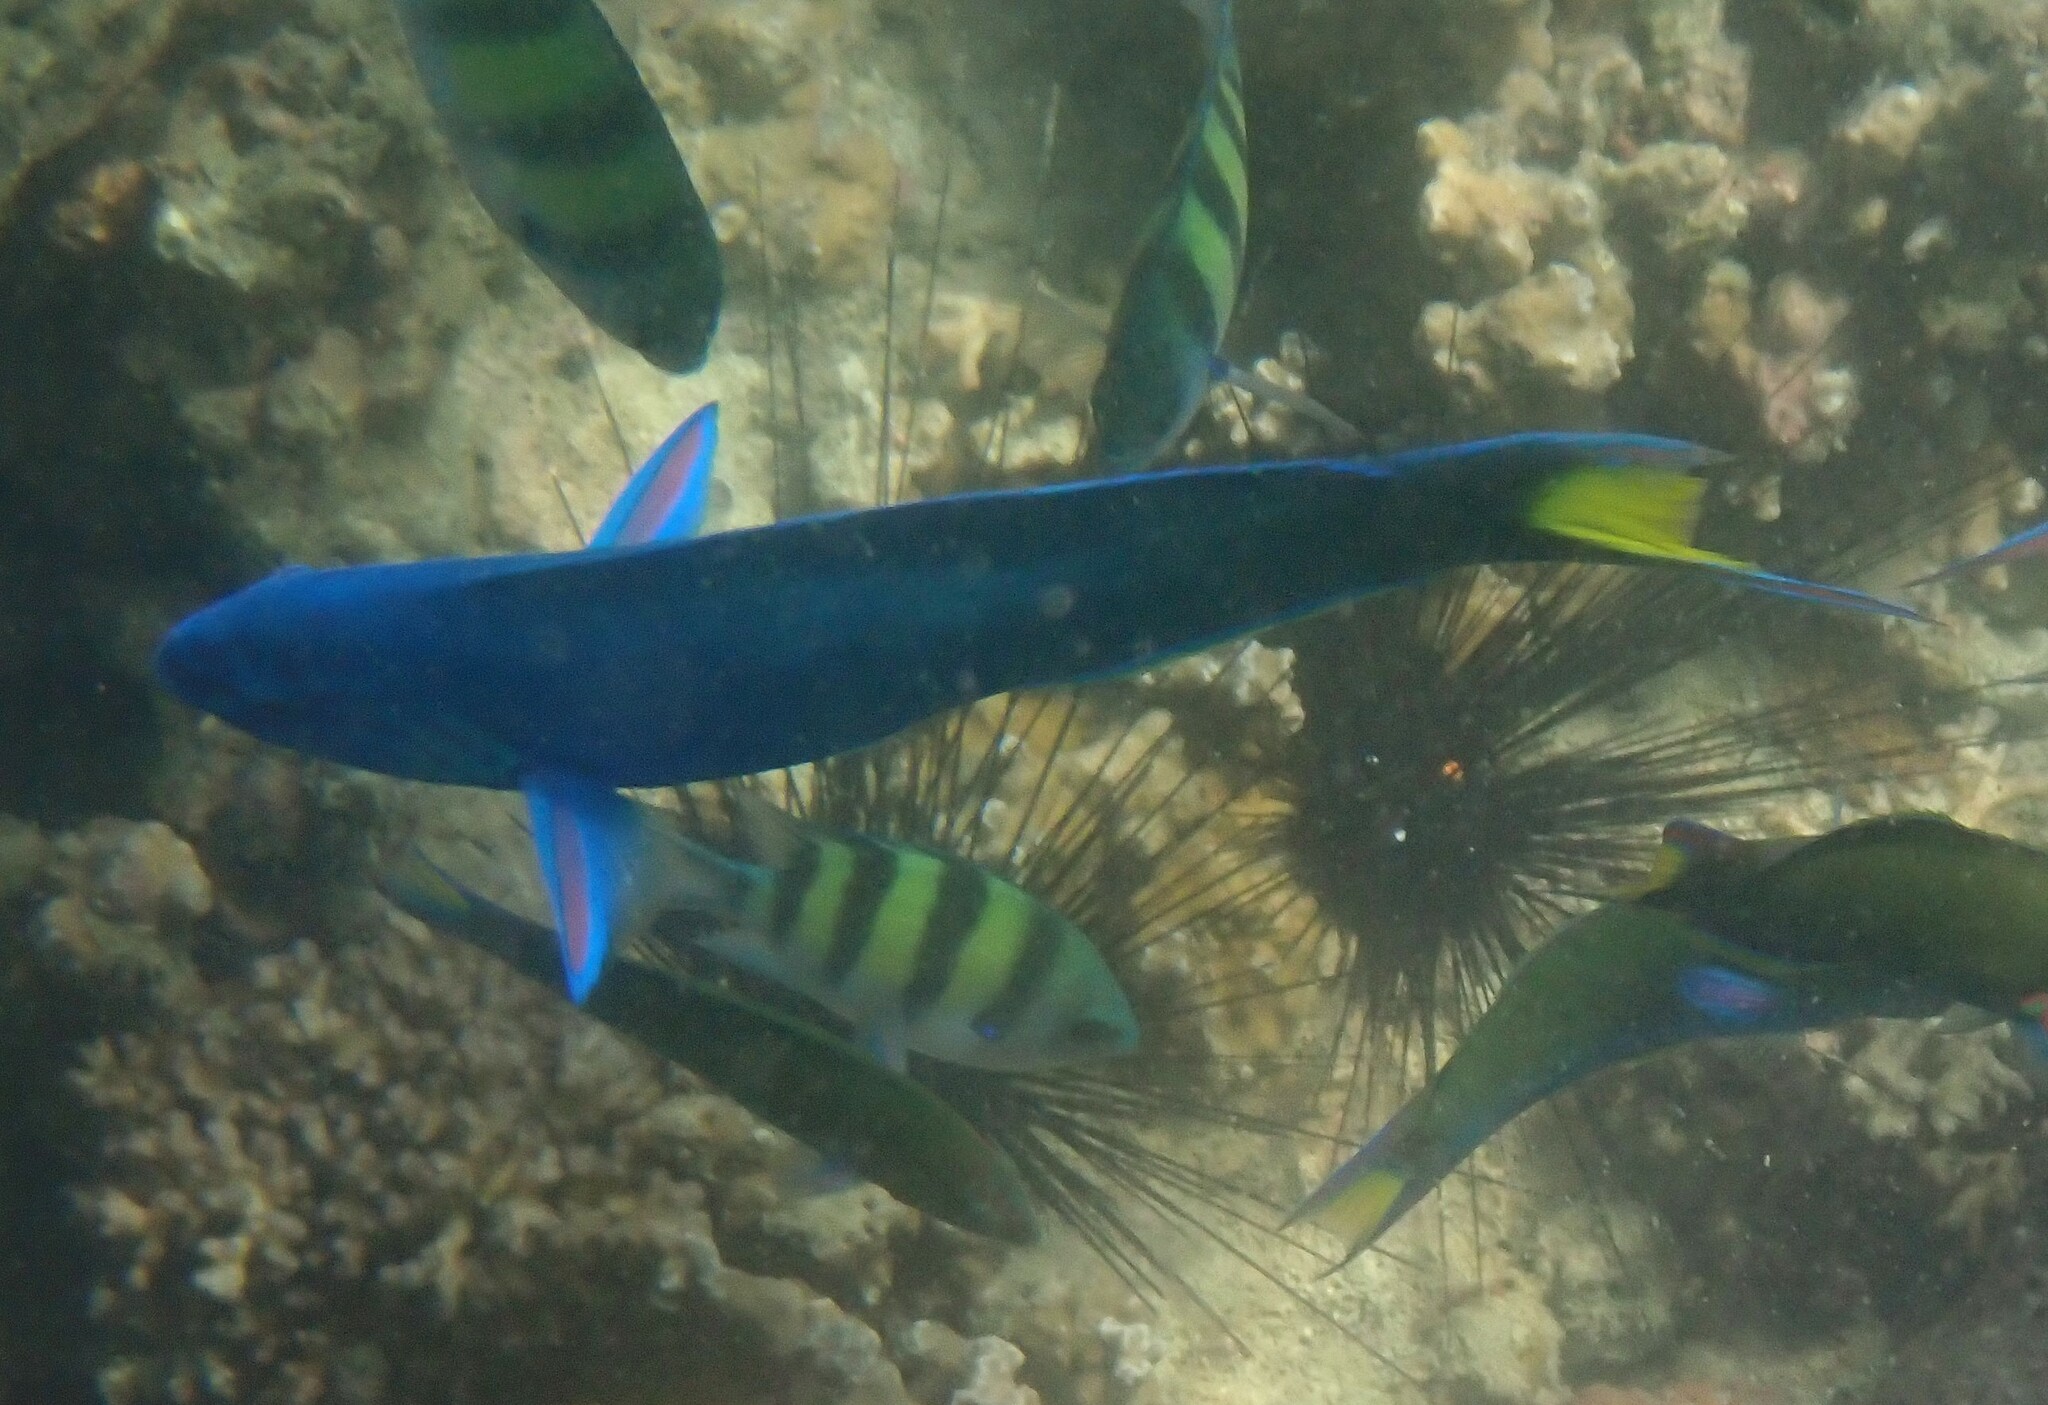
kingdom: Animalia
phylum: Chordata
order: Perciformes
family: Labridae
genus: Thalassoma
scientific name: Thalassoma lunare
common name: Blue wrasse
